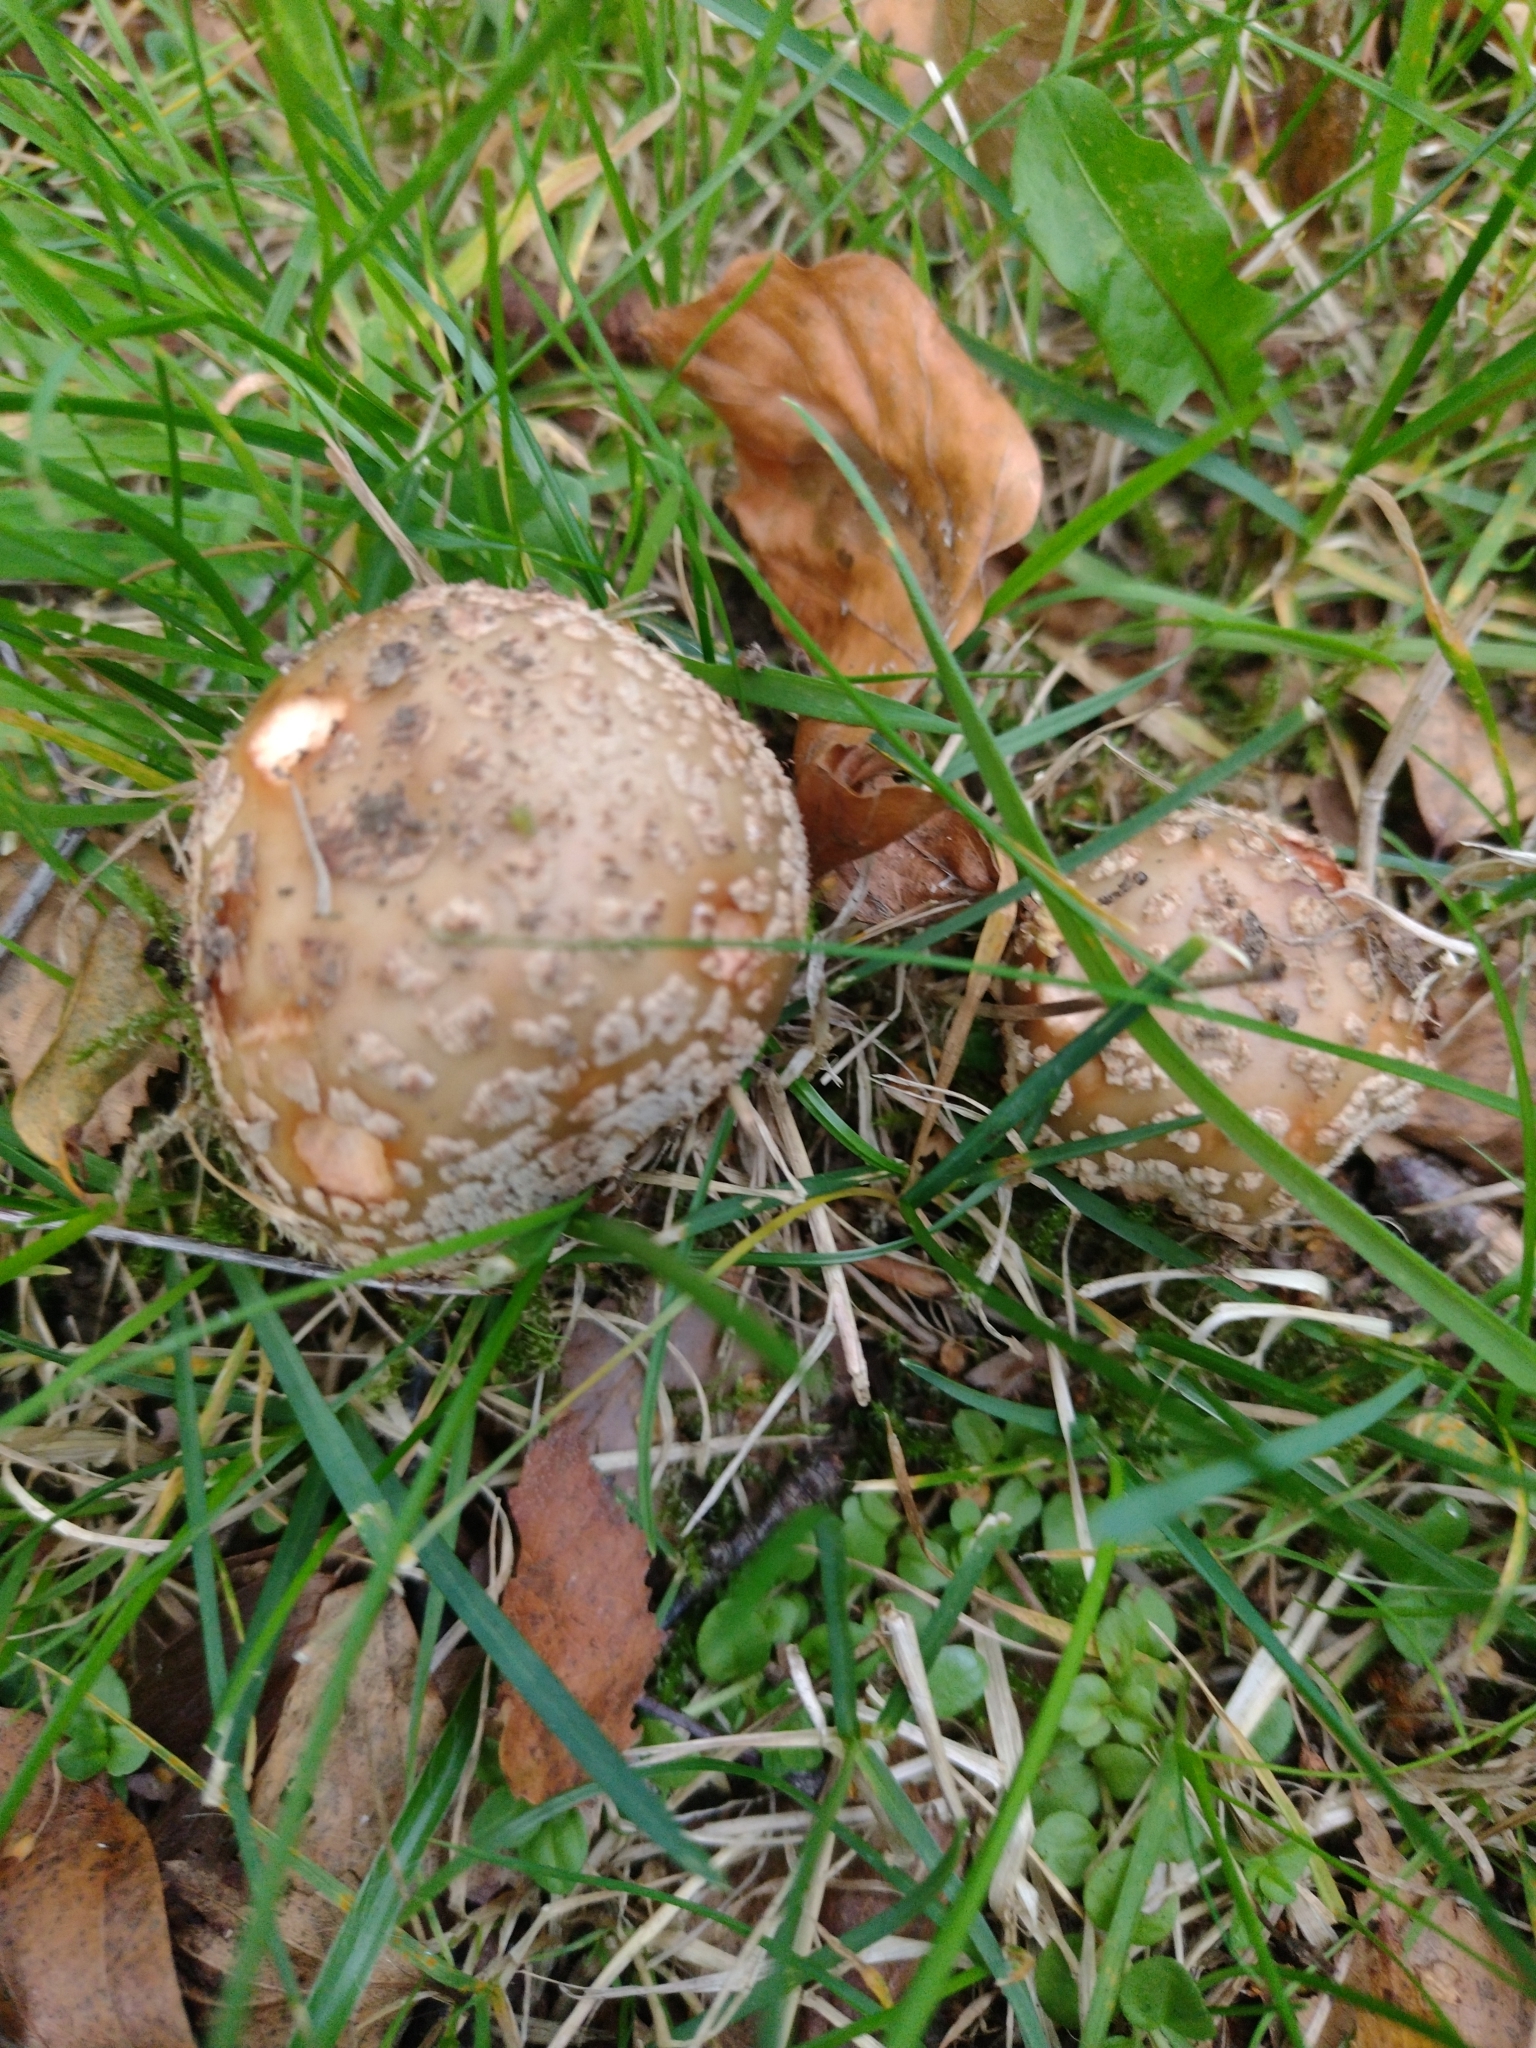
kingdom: Fungi
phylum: Basidiomycota
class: Agaricomycetes
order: Agaricales
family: Amanitaceae
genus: Amanita
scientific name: Amanita rubescens
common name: Blusher
